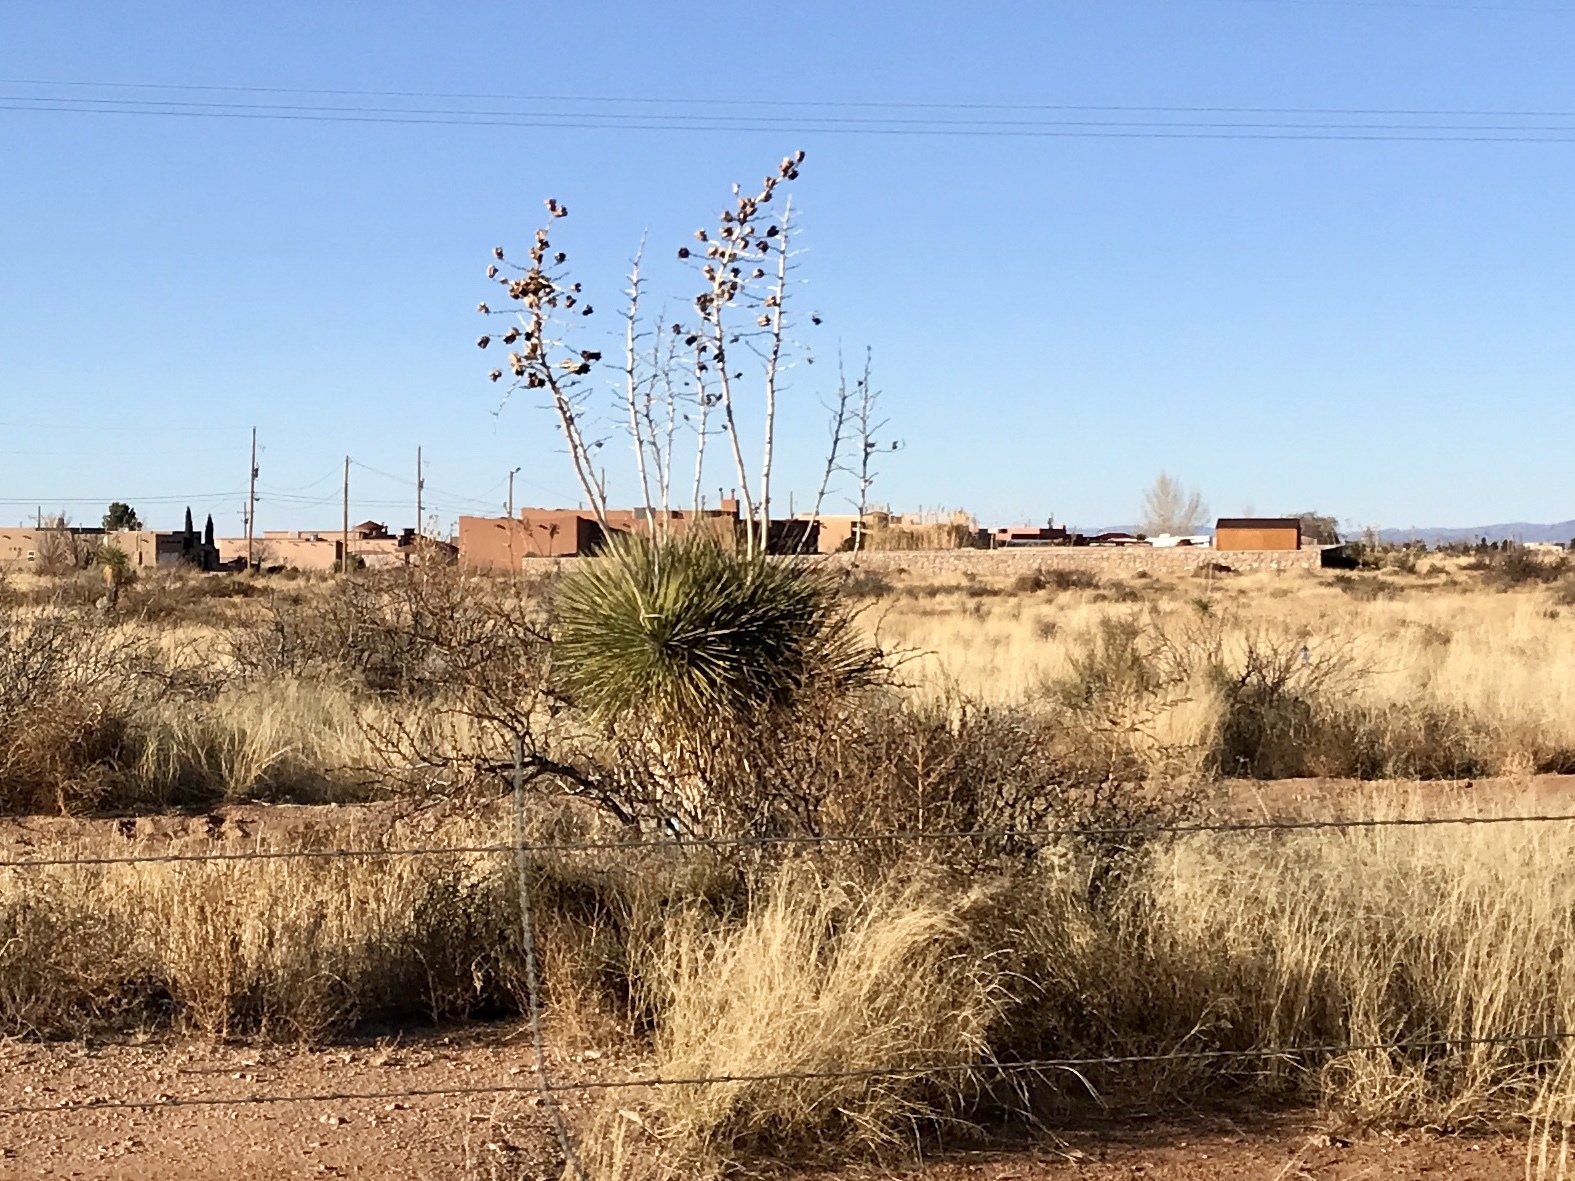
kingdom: Plantae
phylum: Tracheophyta
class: Liliopsida
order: Asparagales
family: Asparagaceae
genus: Yucca
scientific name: Yucca elata
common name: Palmella
